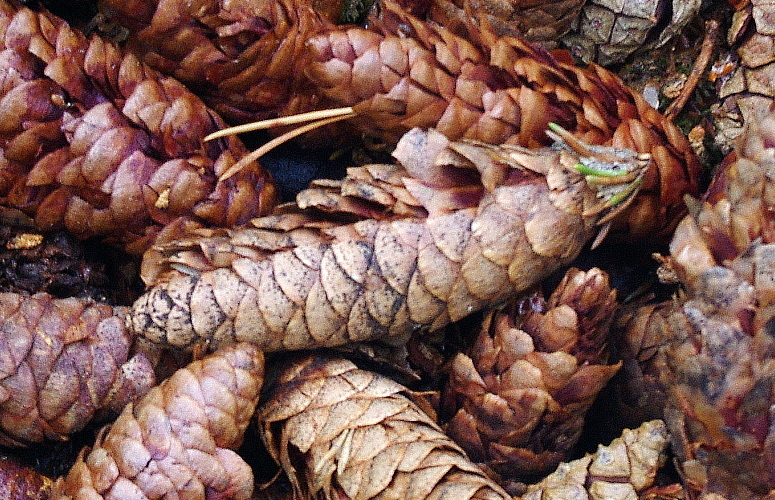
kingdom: Plantae
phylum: Tracheophyta
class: Pinopsida
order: Pinales
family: Pinaceae
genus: Picea
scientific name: Picea obovata
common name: Siberian spruce
